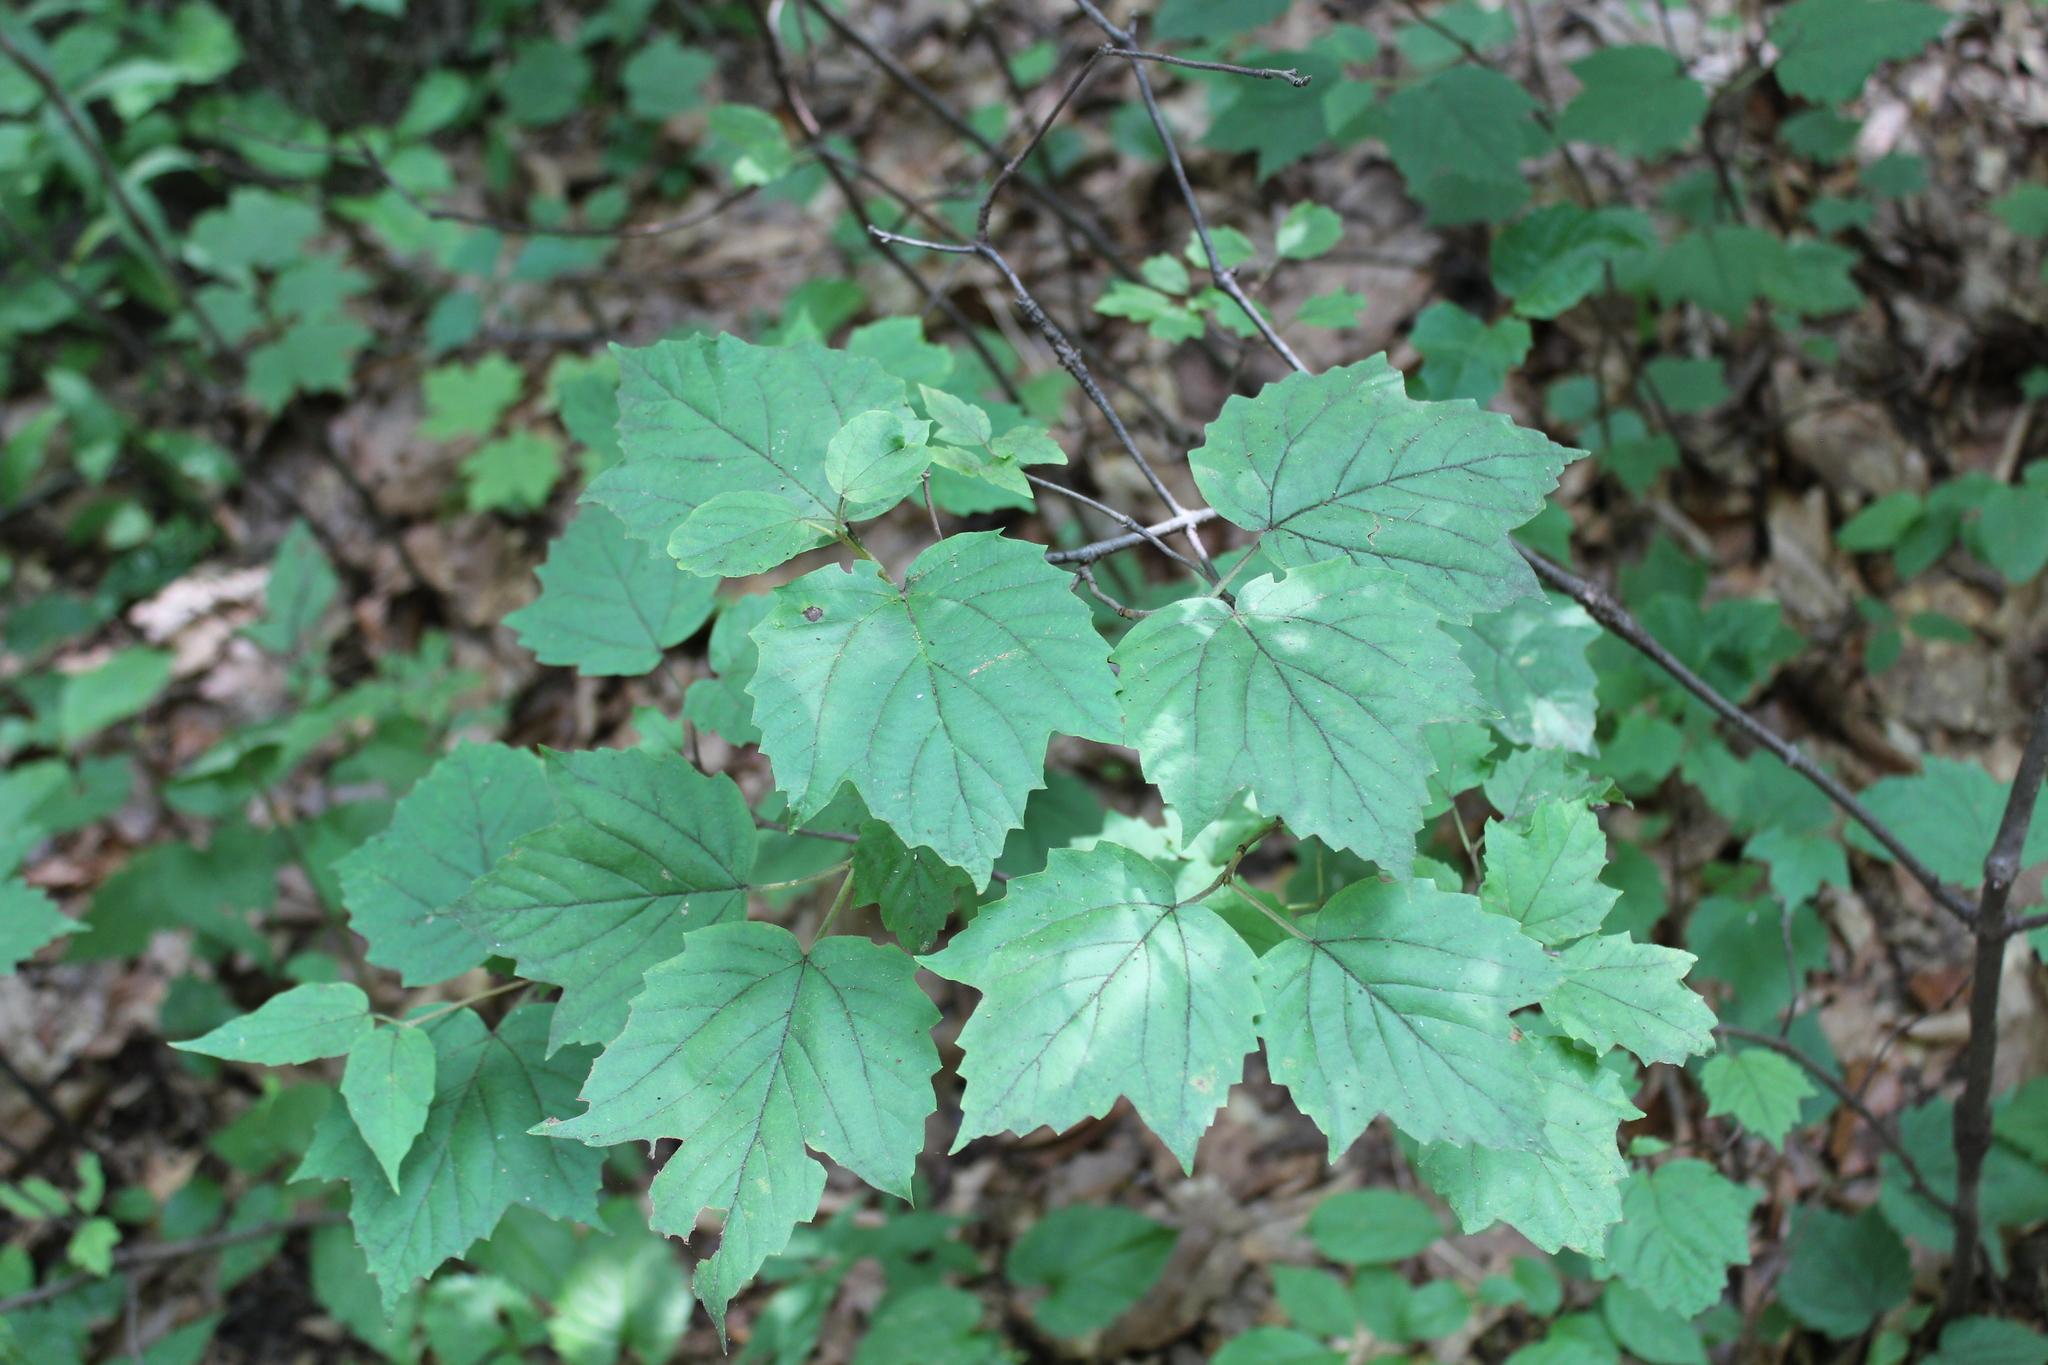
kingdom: Plantae
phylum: Tracheophyta
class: Magnoliopsida
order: Dipsacales
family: Viburnaceae
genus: Viburnum
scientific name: Viburnum acerifolium
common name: Dockmackie
